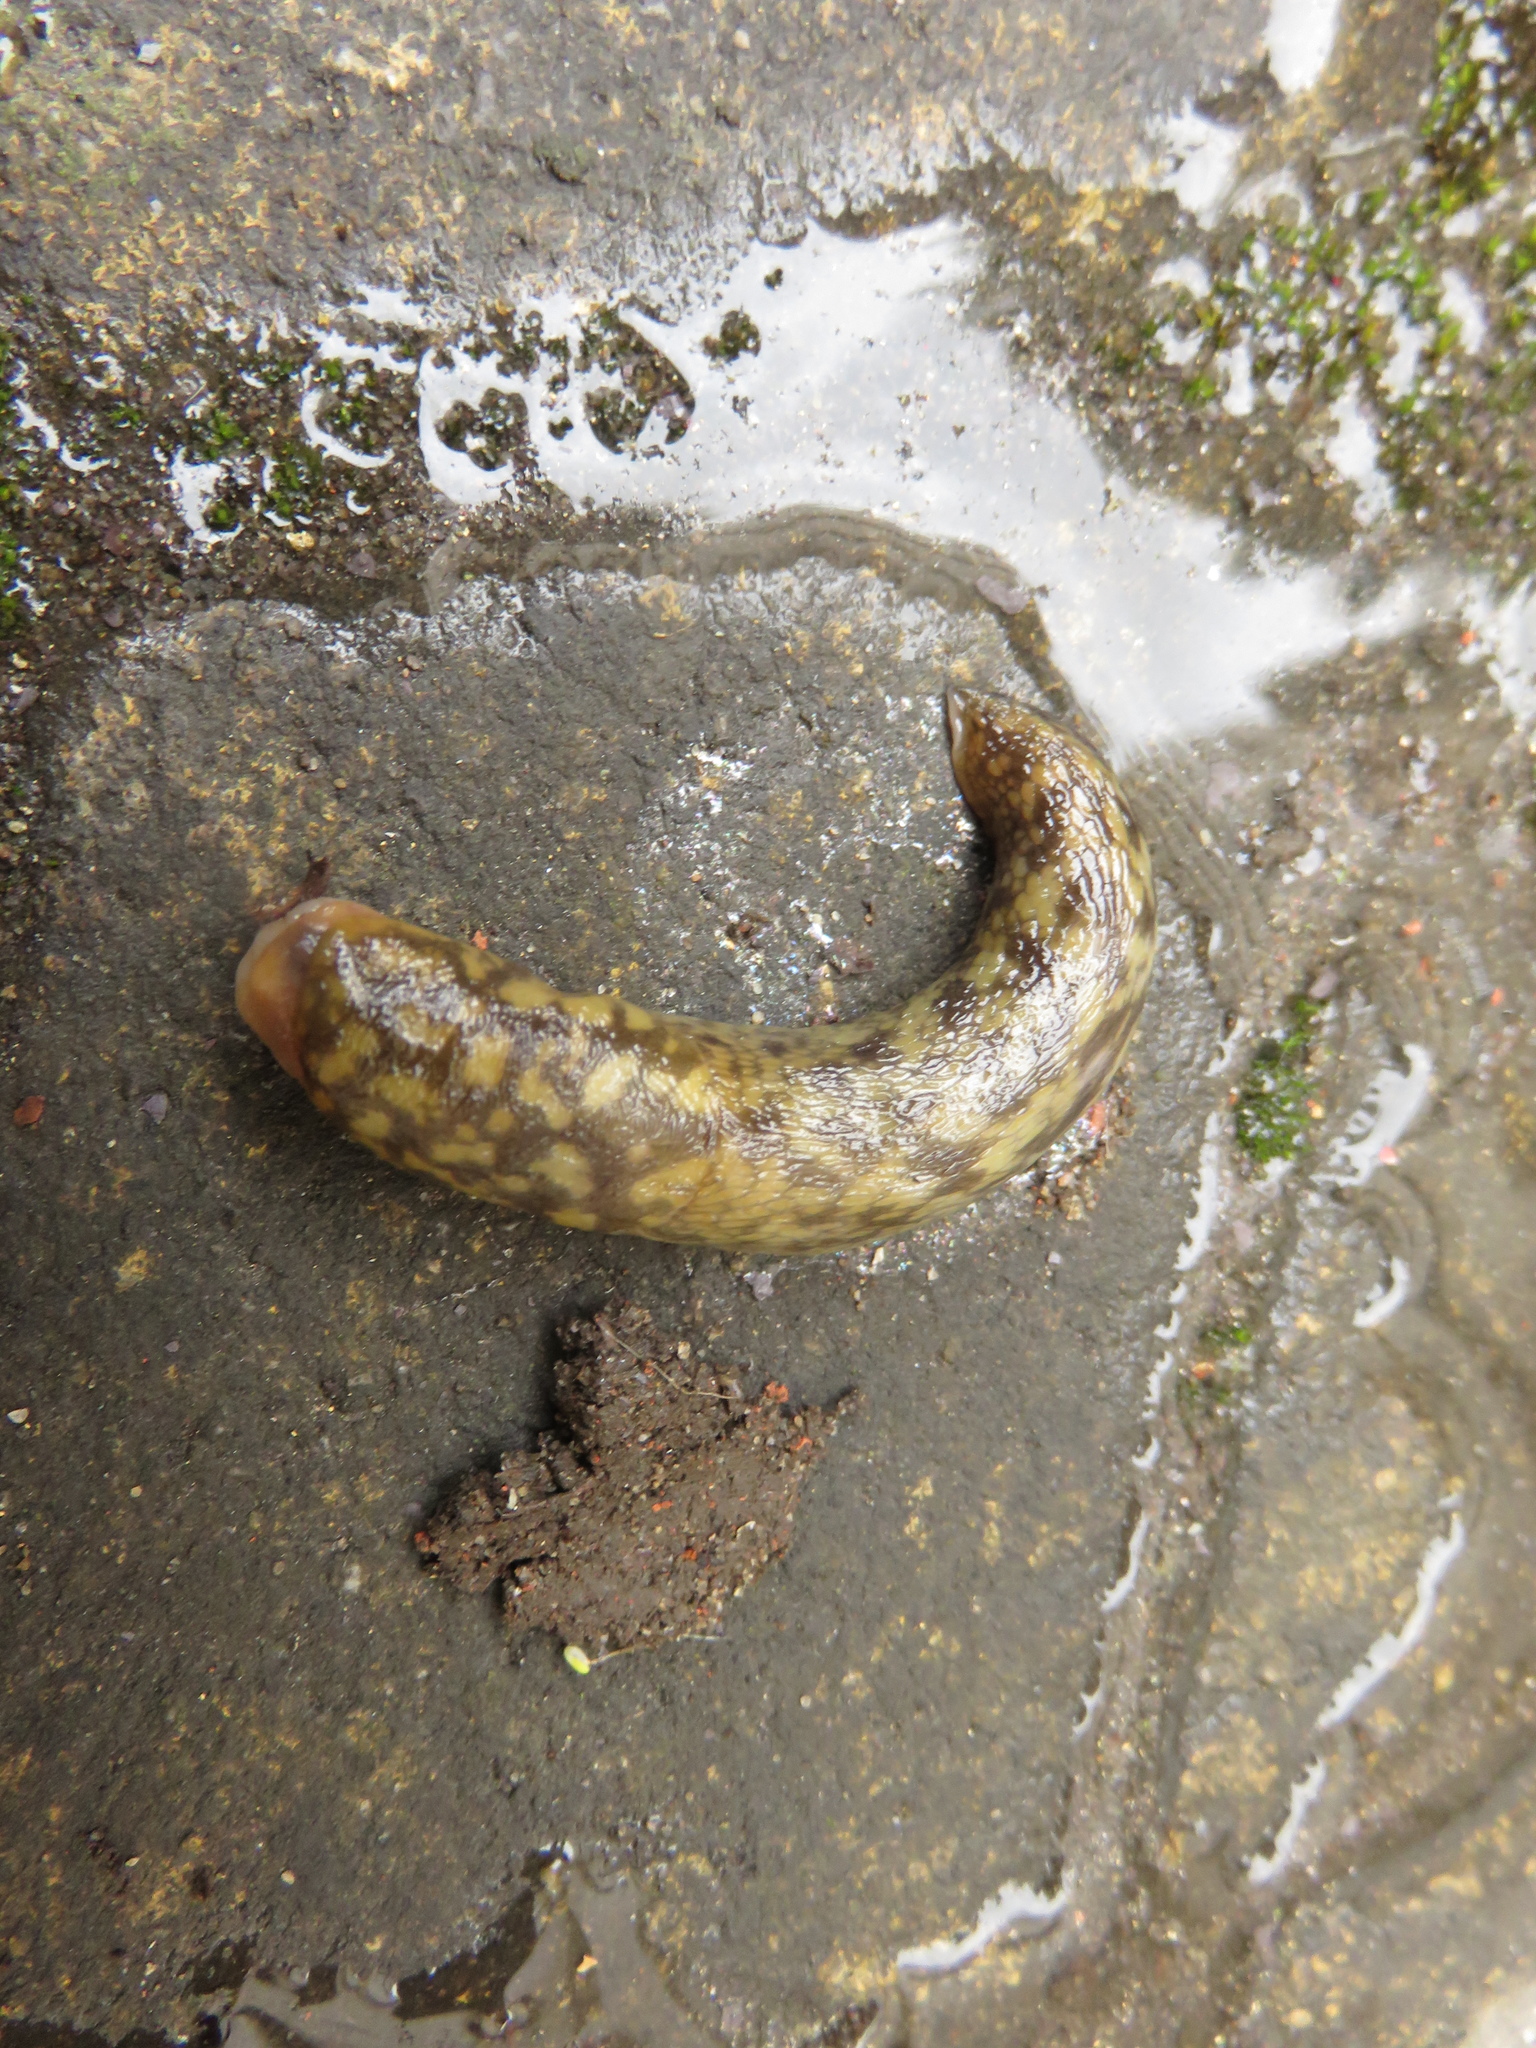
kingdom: Animalia
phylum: Mollusca
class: Gastropoda
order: Stylommatophora
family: Limacidae
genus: Limacus
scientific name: Limacus maculatus
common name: Irish yellow slug
